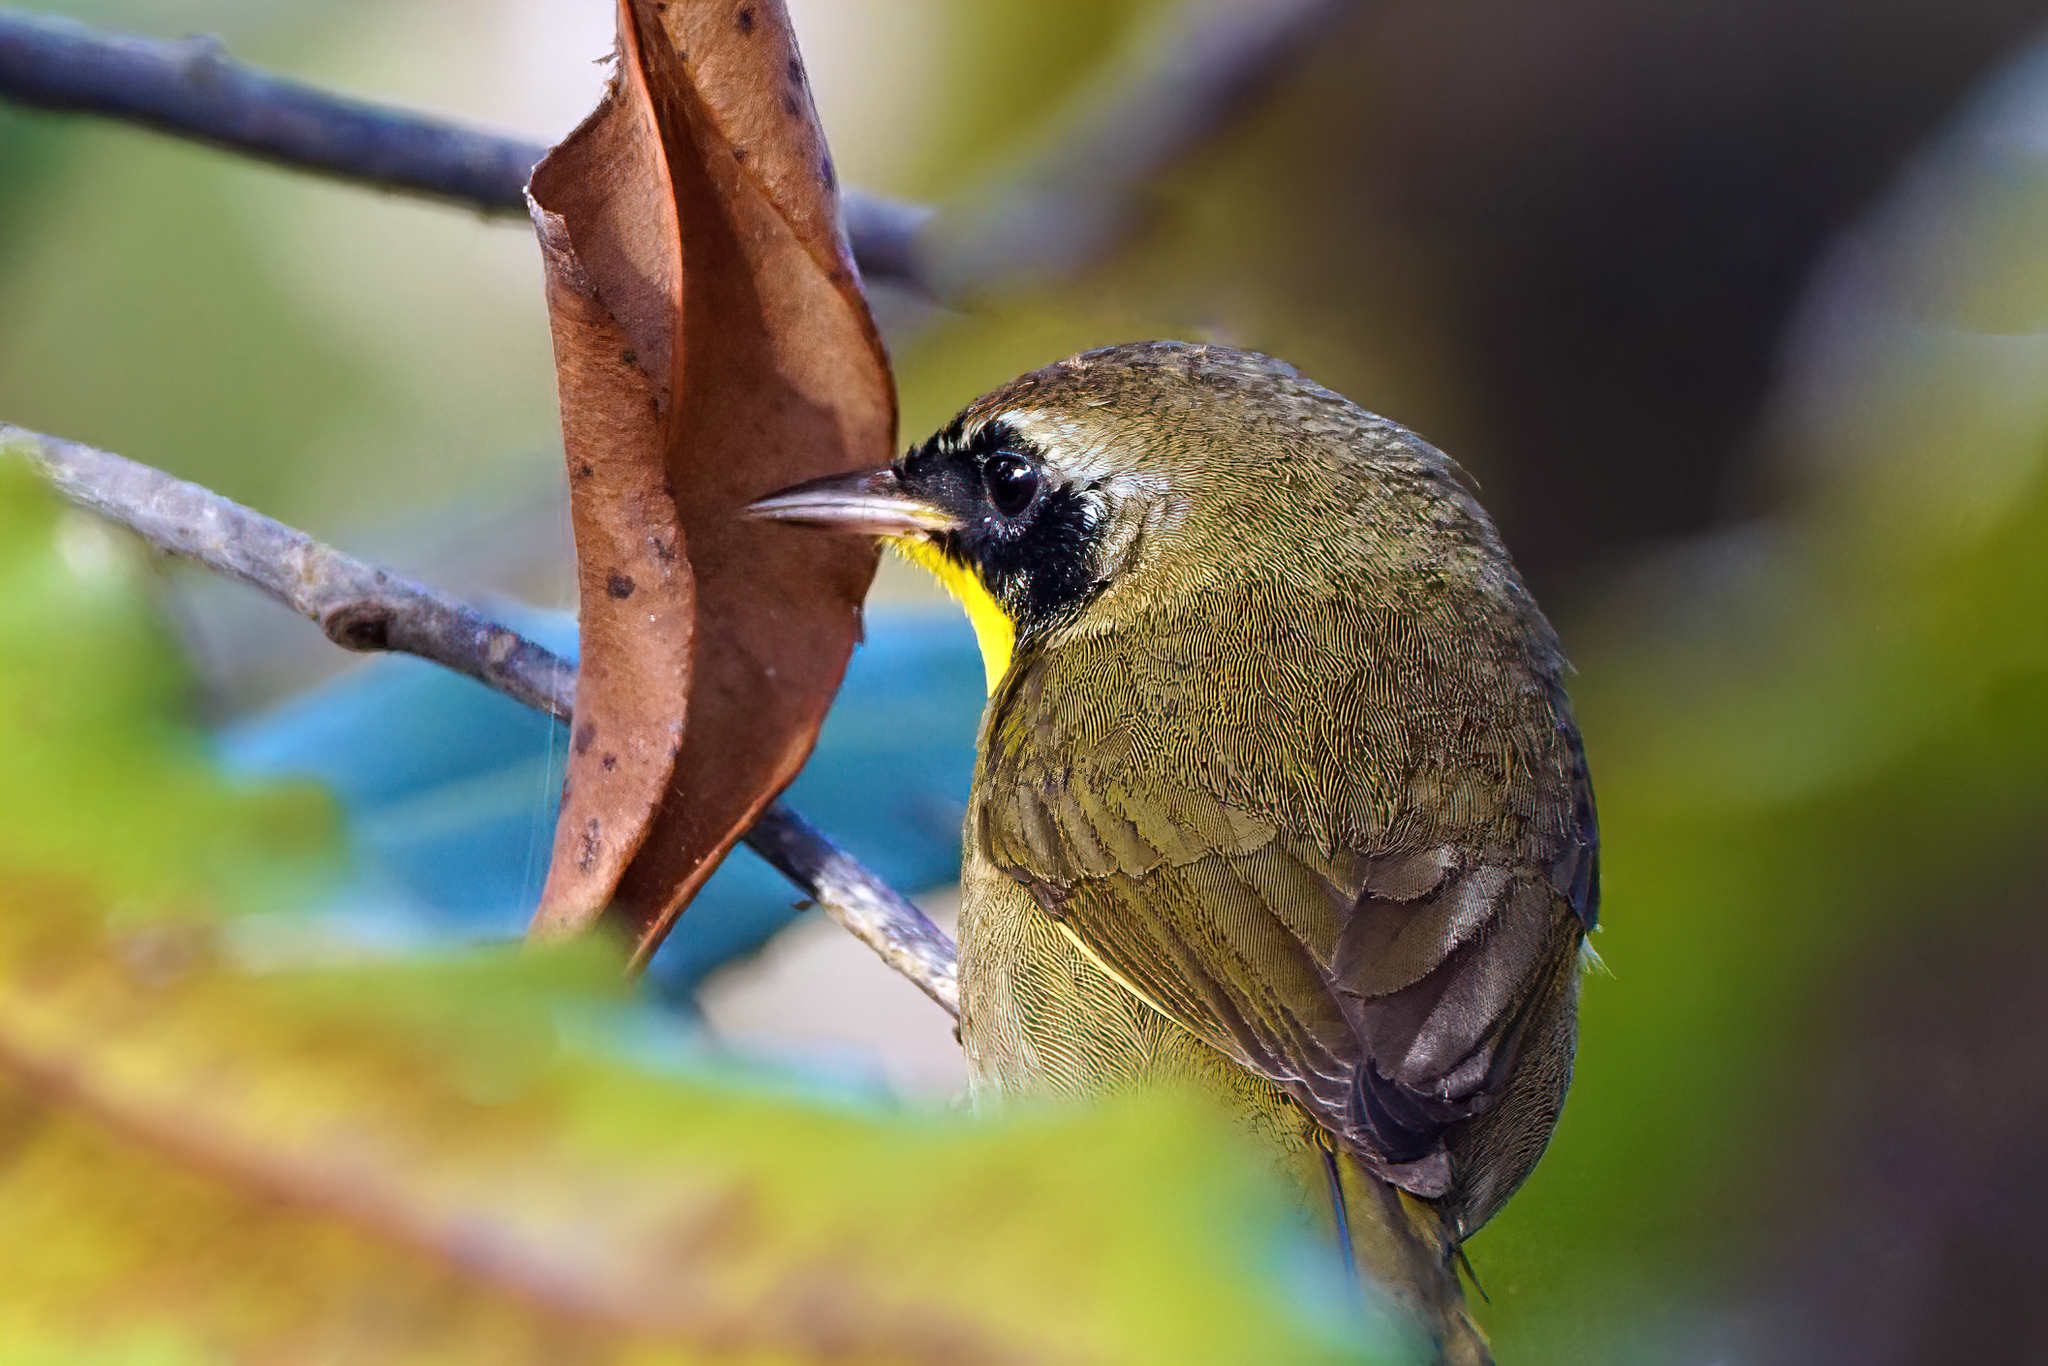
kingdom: Animalia
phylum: Chordata
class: Aves
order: Passeriformes
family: Parulidae
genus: Geothlypis
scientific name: Geothlypis trichas
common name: Common yellowthroat
